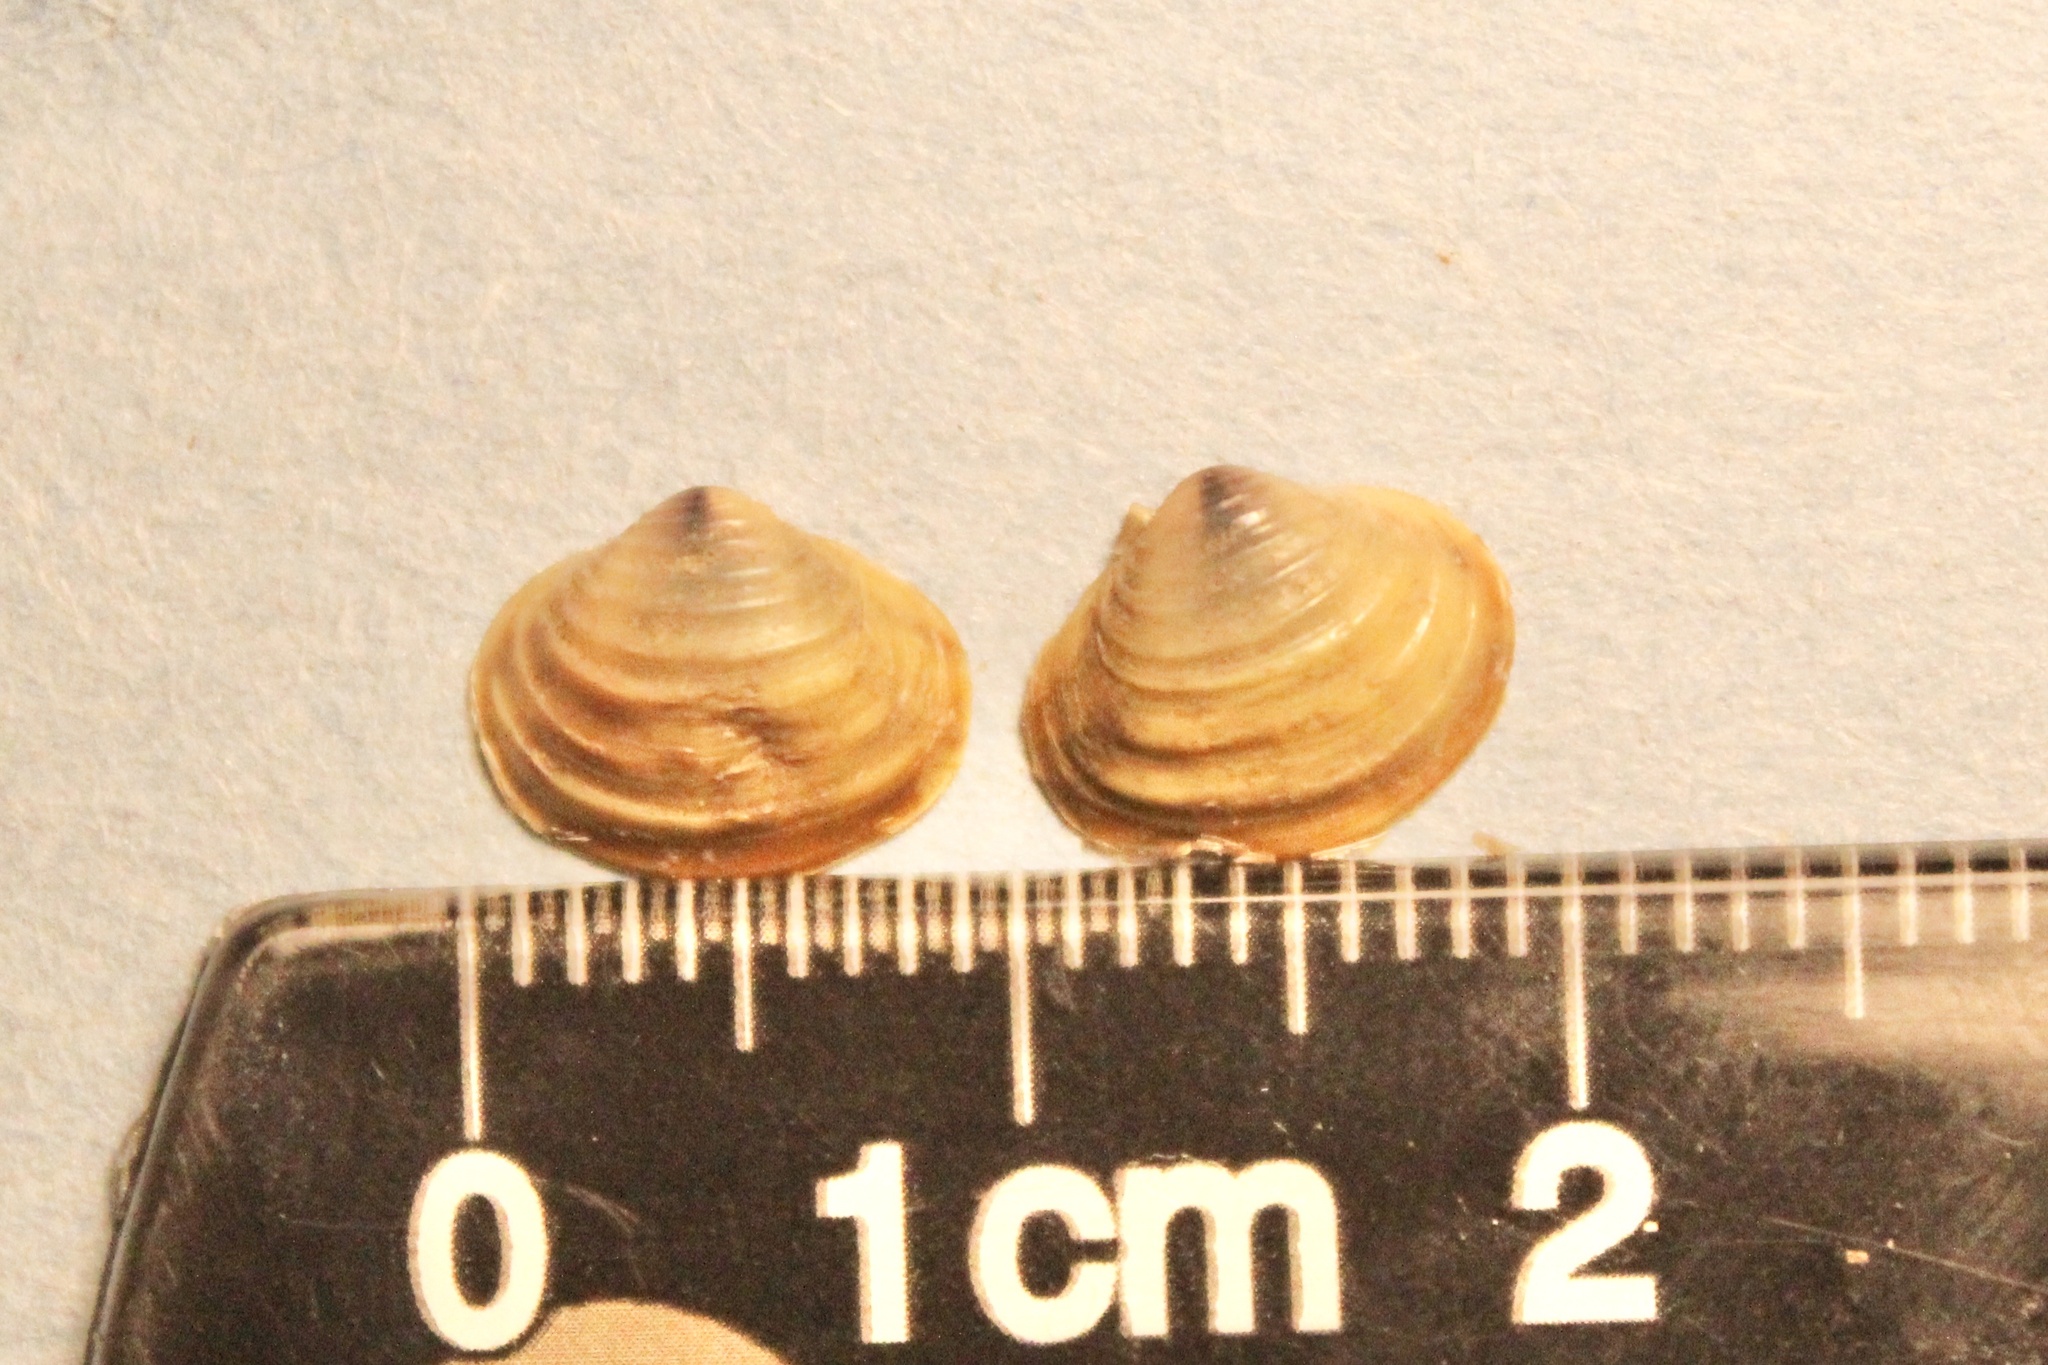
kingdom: Animalia
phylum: Mollusca
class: Bivalvia
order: Venerida
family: Cyrenidae
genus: Corbicula
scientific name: Corbicula fluminea
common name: Asian clam
